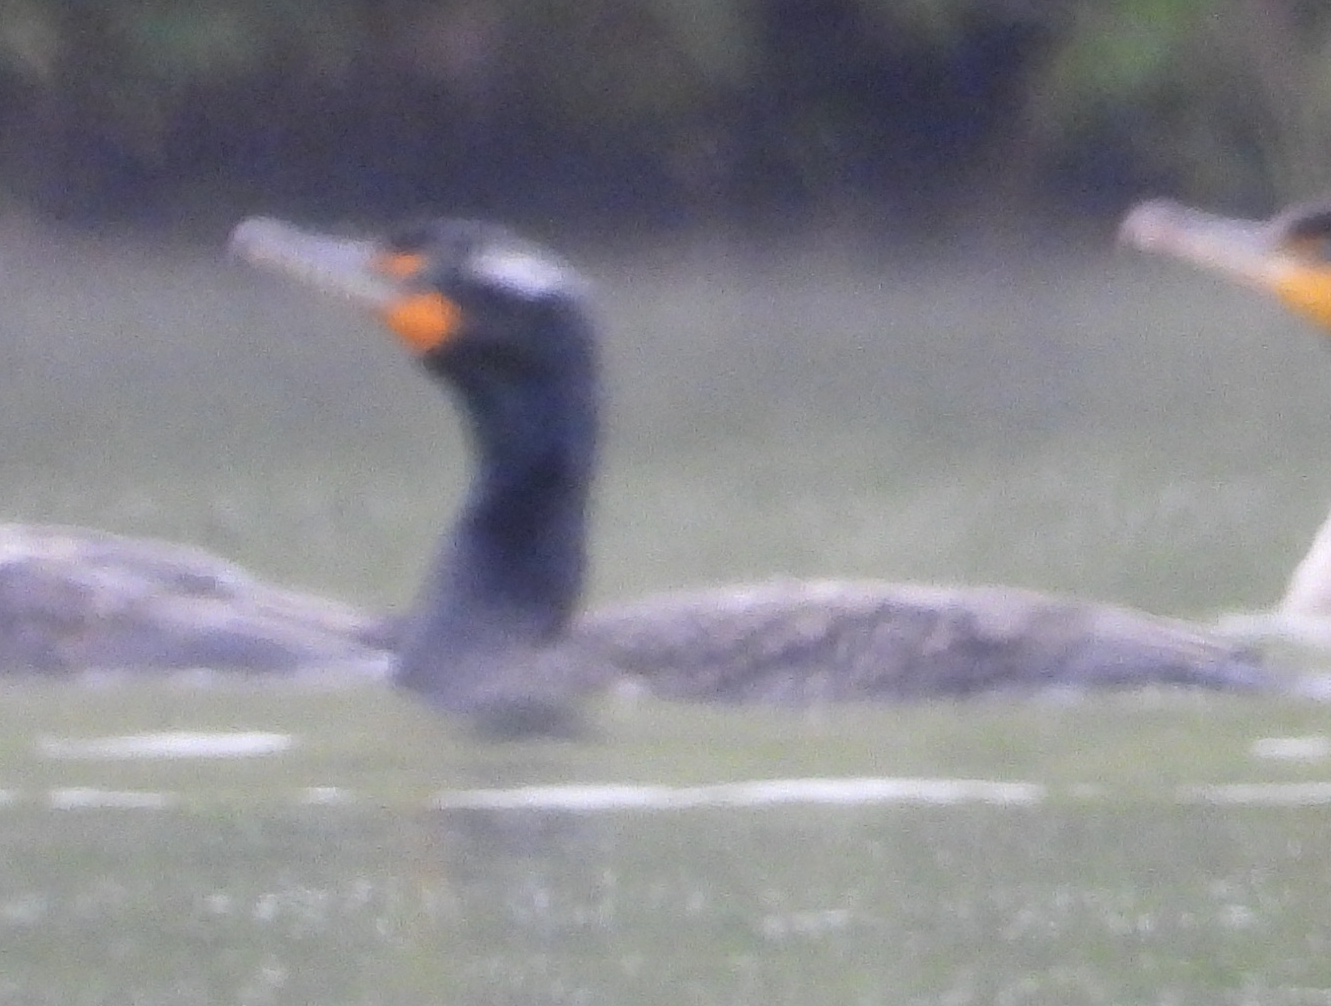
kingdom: Animalia
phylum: Chordata
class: Aves
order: Suliformes
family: Phalacrocoracidae
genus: Phalacrocorax
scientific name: Phalacrocorax auritus
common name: Double-crested cormorant
